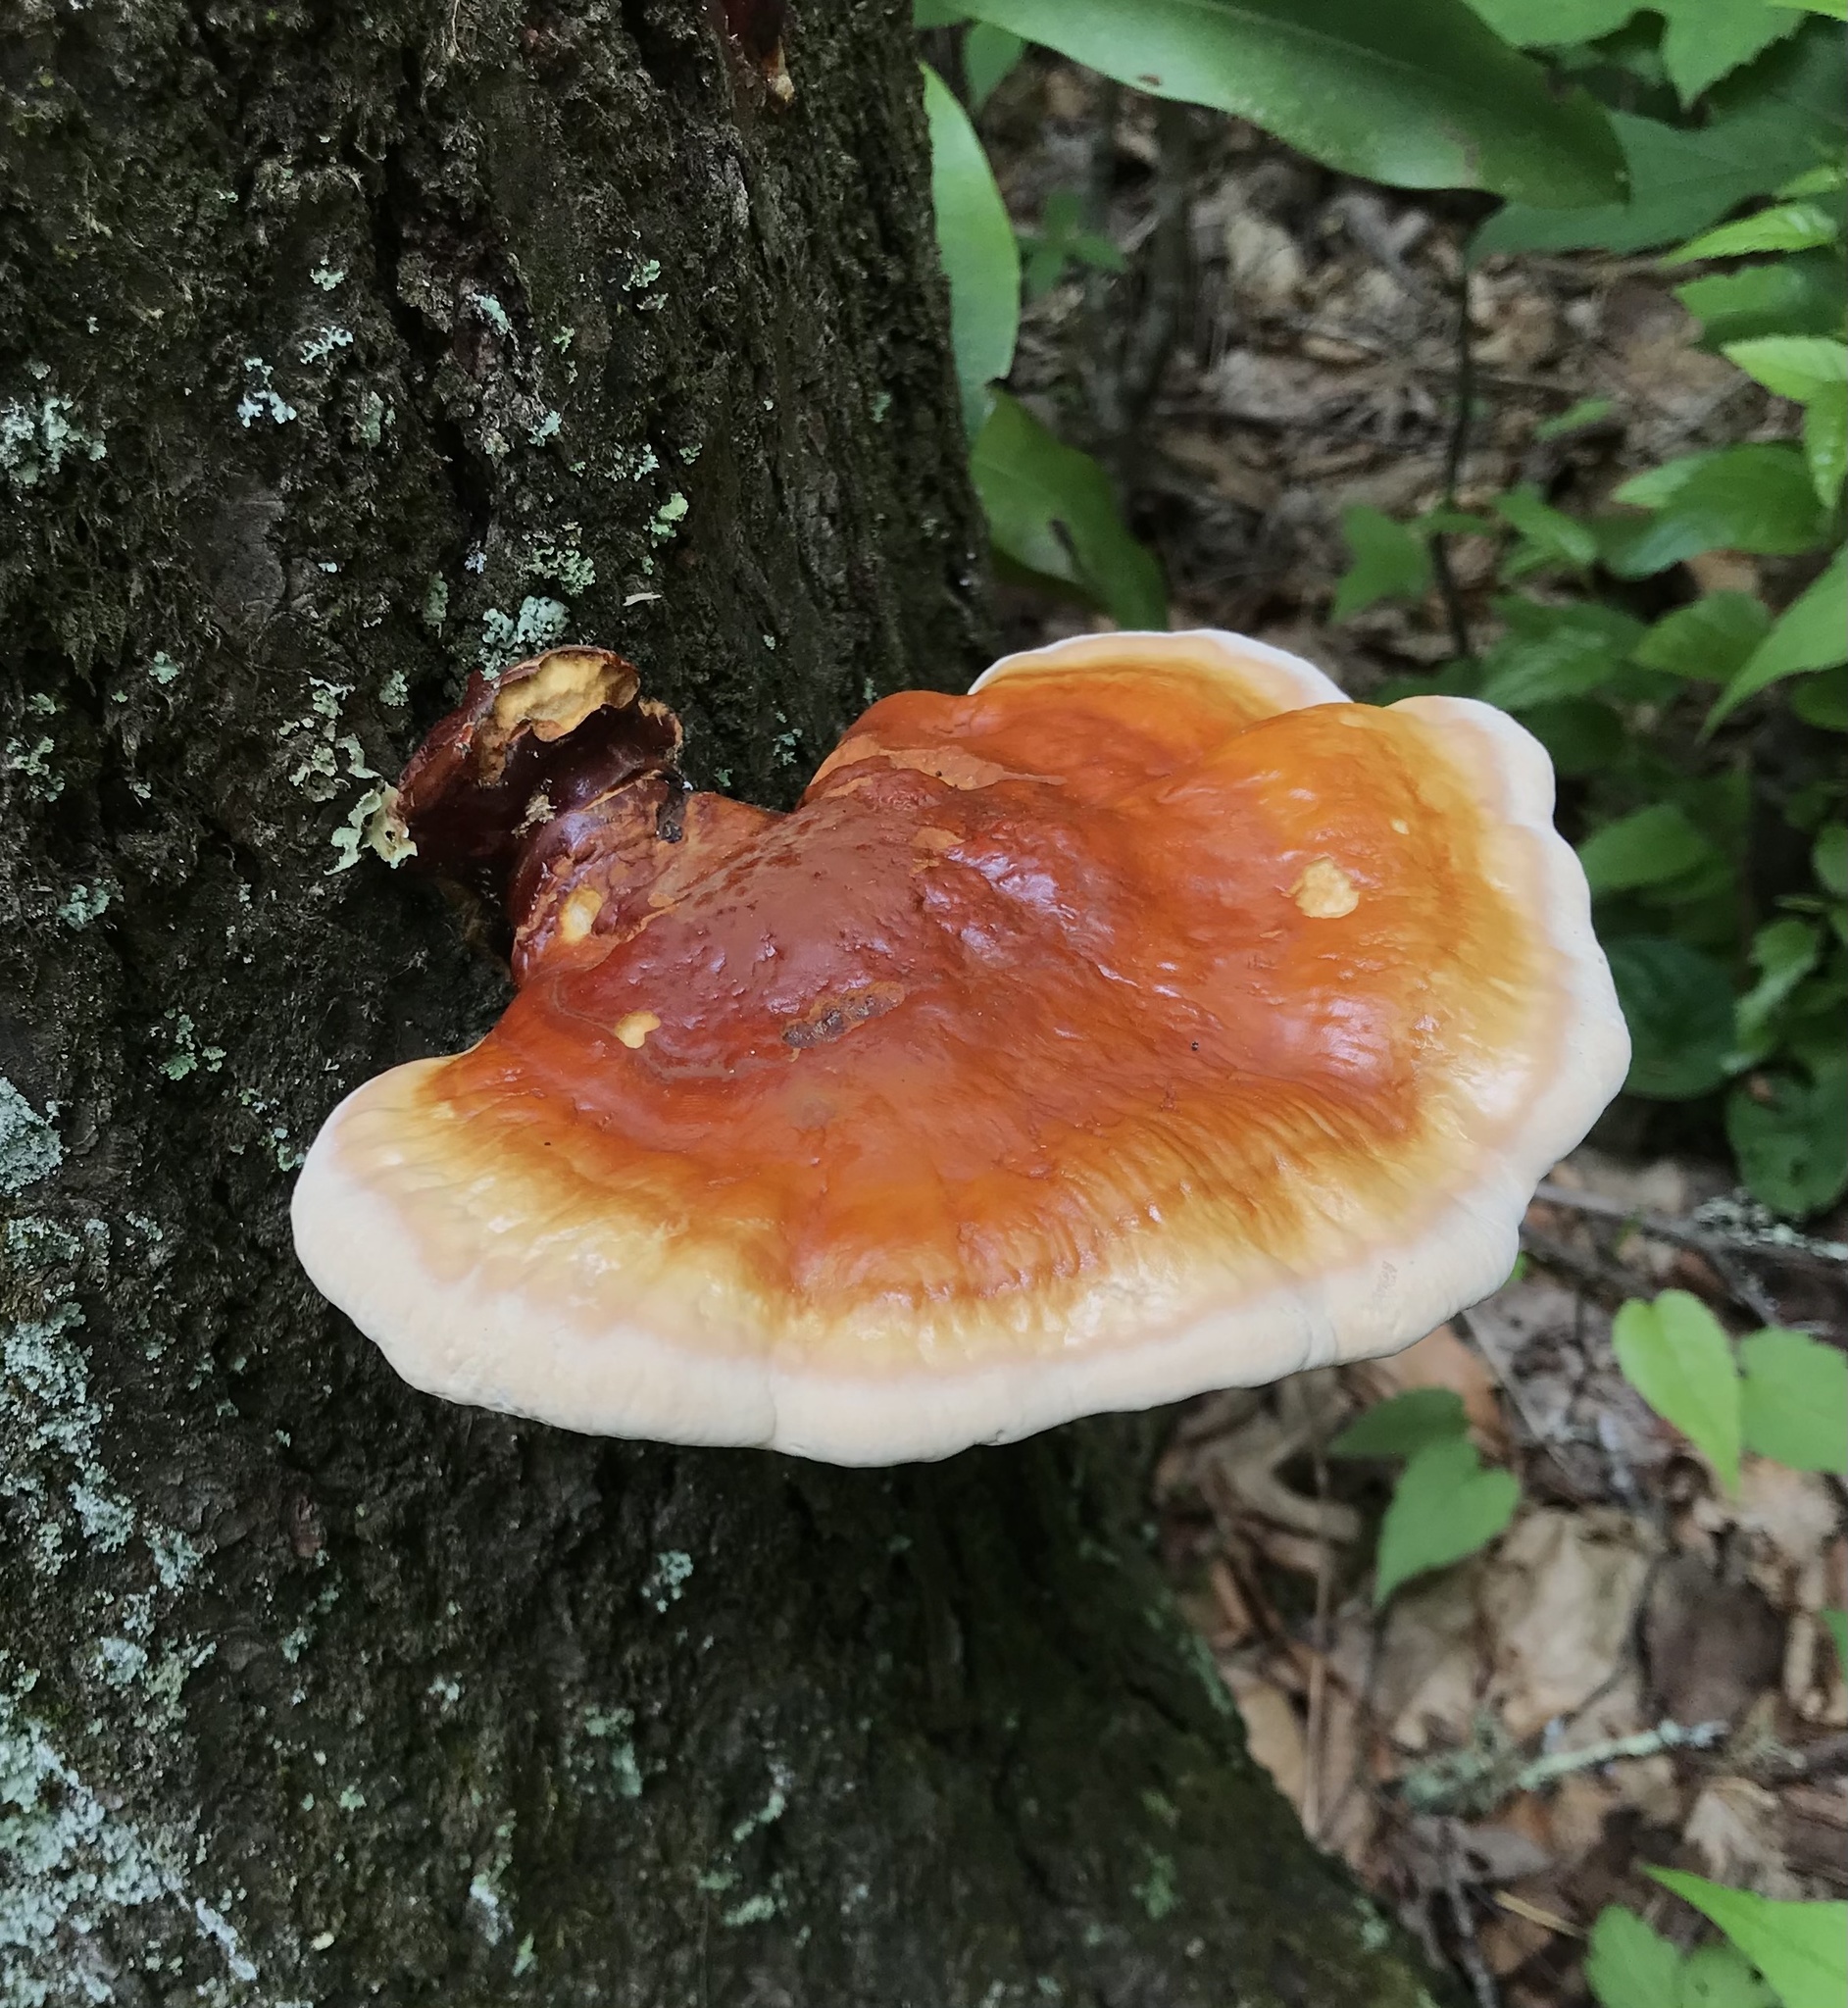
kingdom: Fungi
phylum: Basidiomycota
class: Agaricomycetes
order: Polyporales
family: Polyporaceae
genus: Ganoderma
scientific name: Ganoderma tsugae
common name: Hemlock varnish shelf
